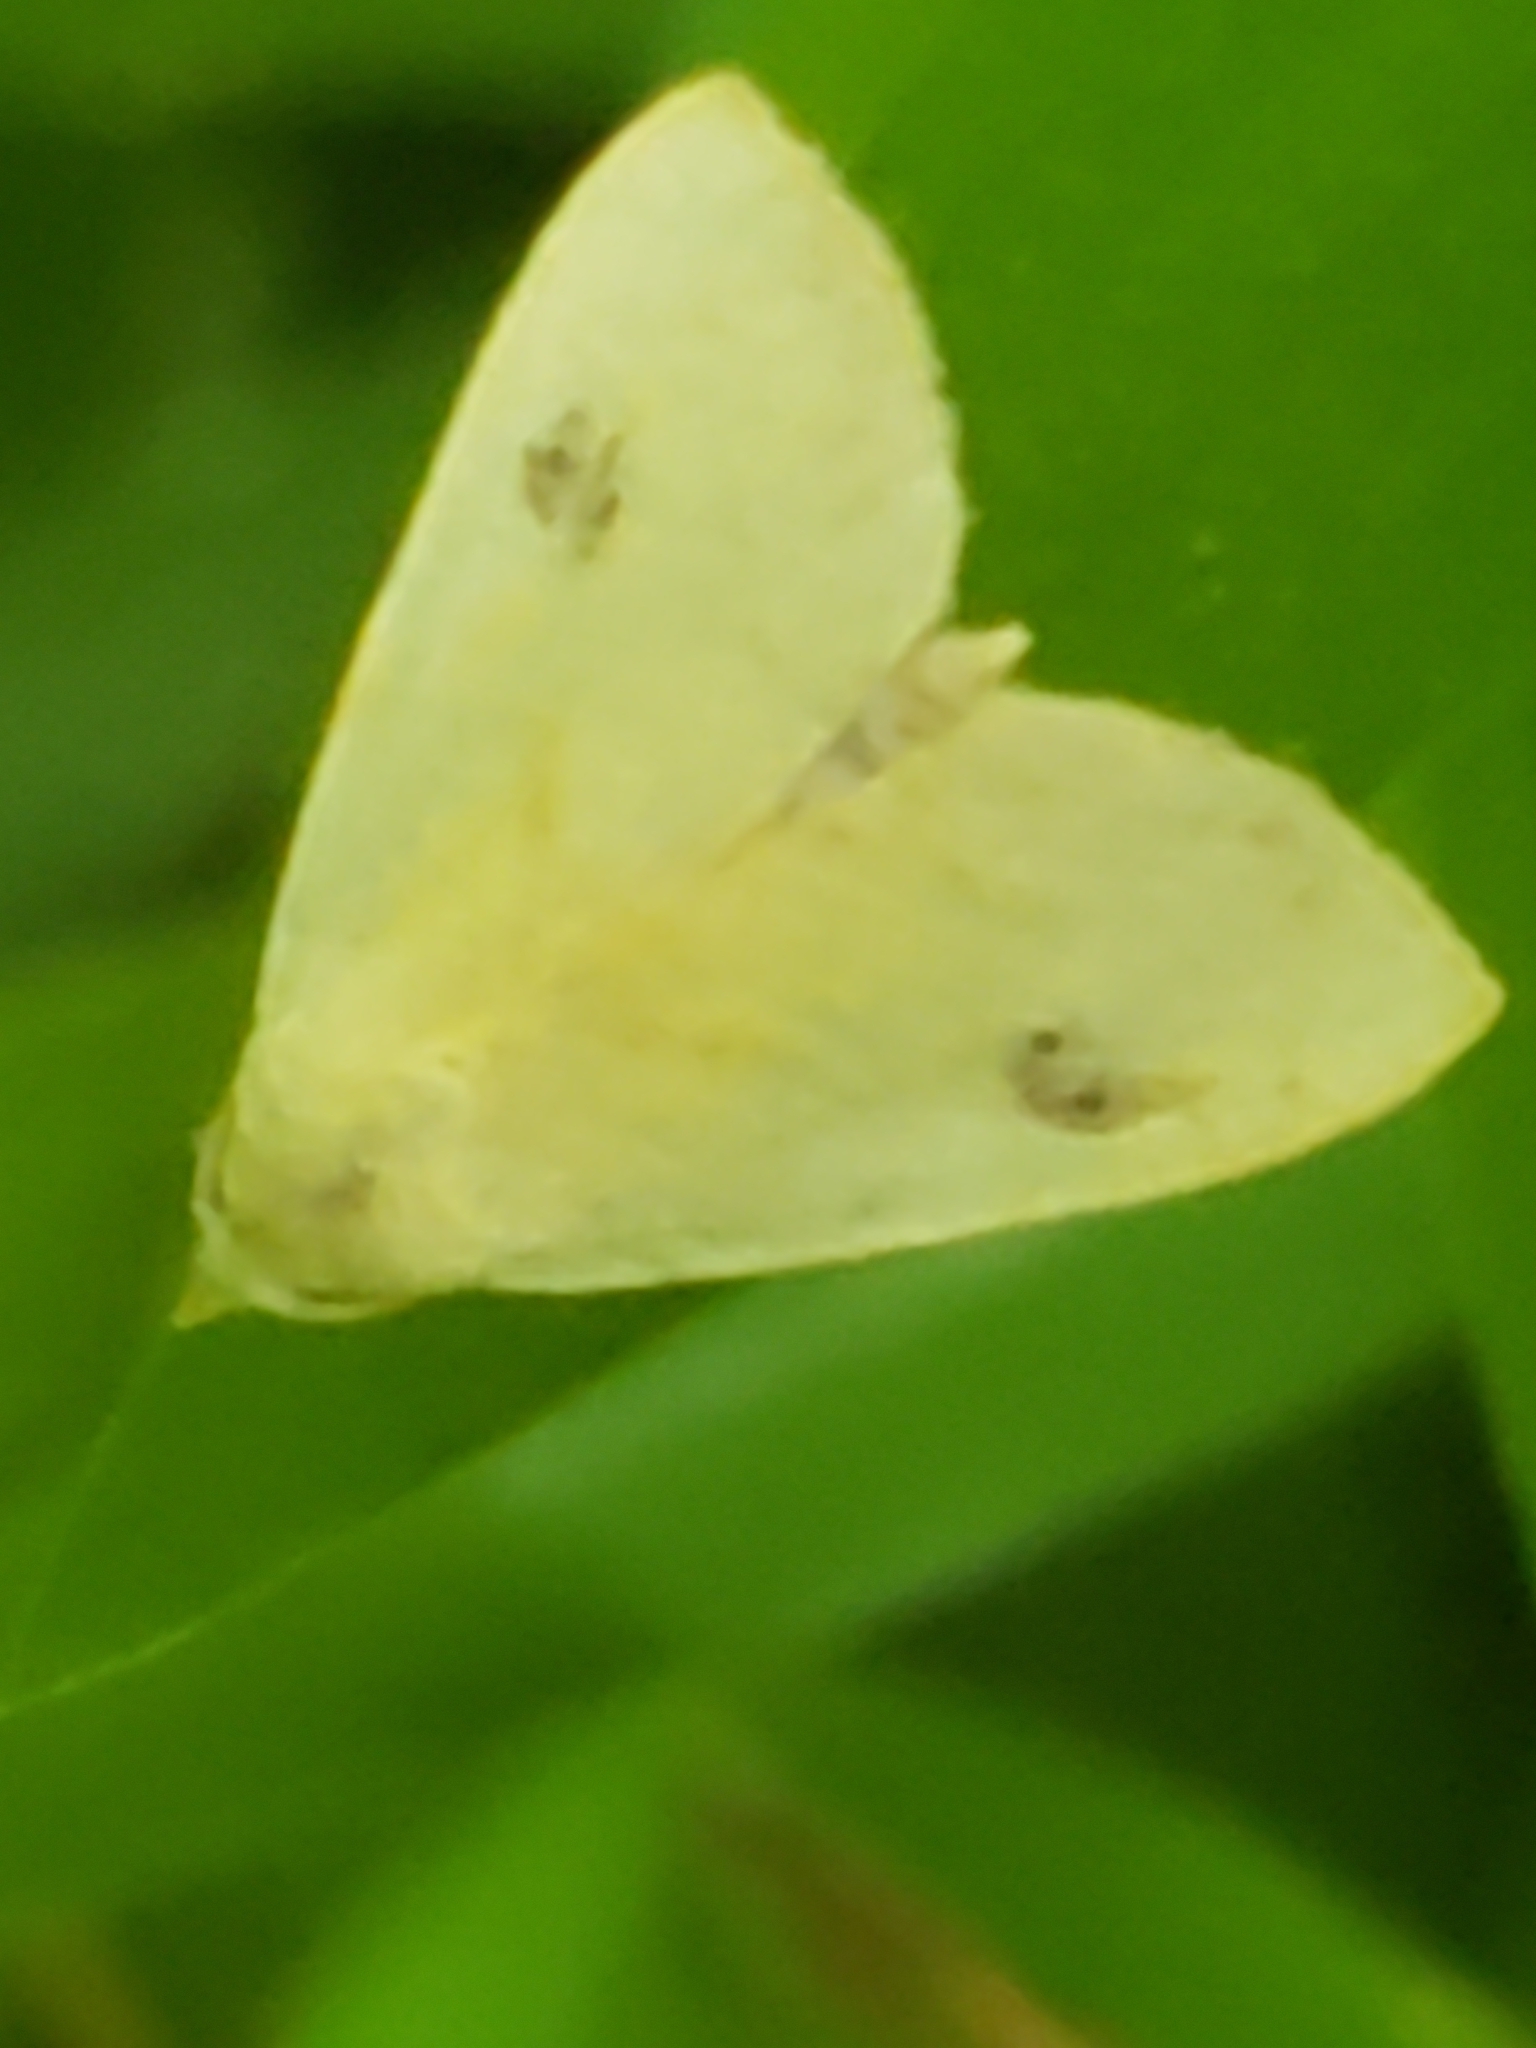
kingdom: Animalia
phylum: Arthropoda
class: Insecta
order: Lepidoptera
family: Erebidae
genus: Rivula
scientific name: Rivula propinqualis
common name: Spotted grass moth
